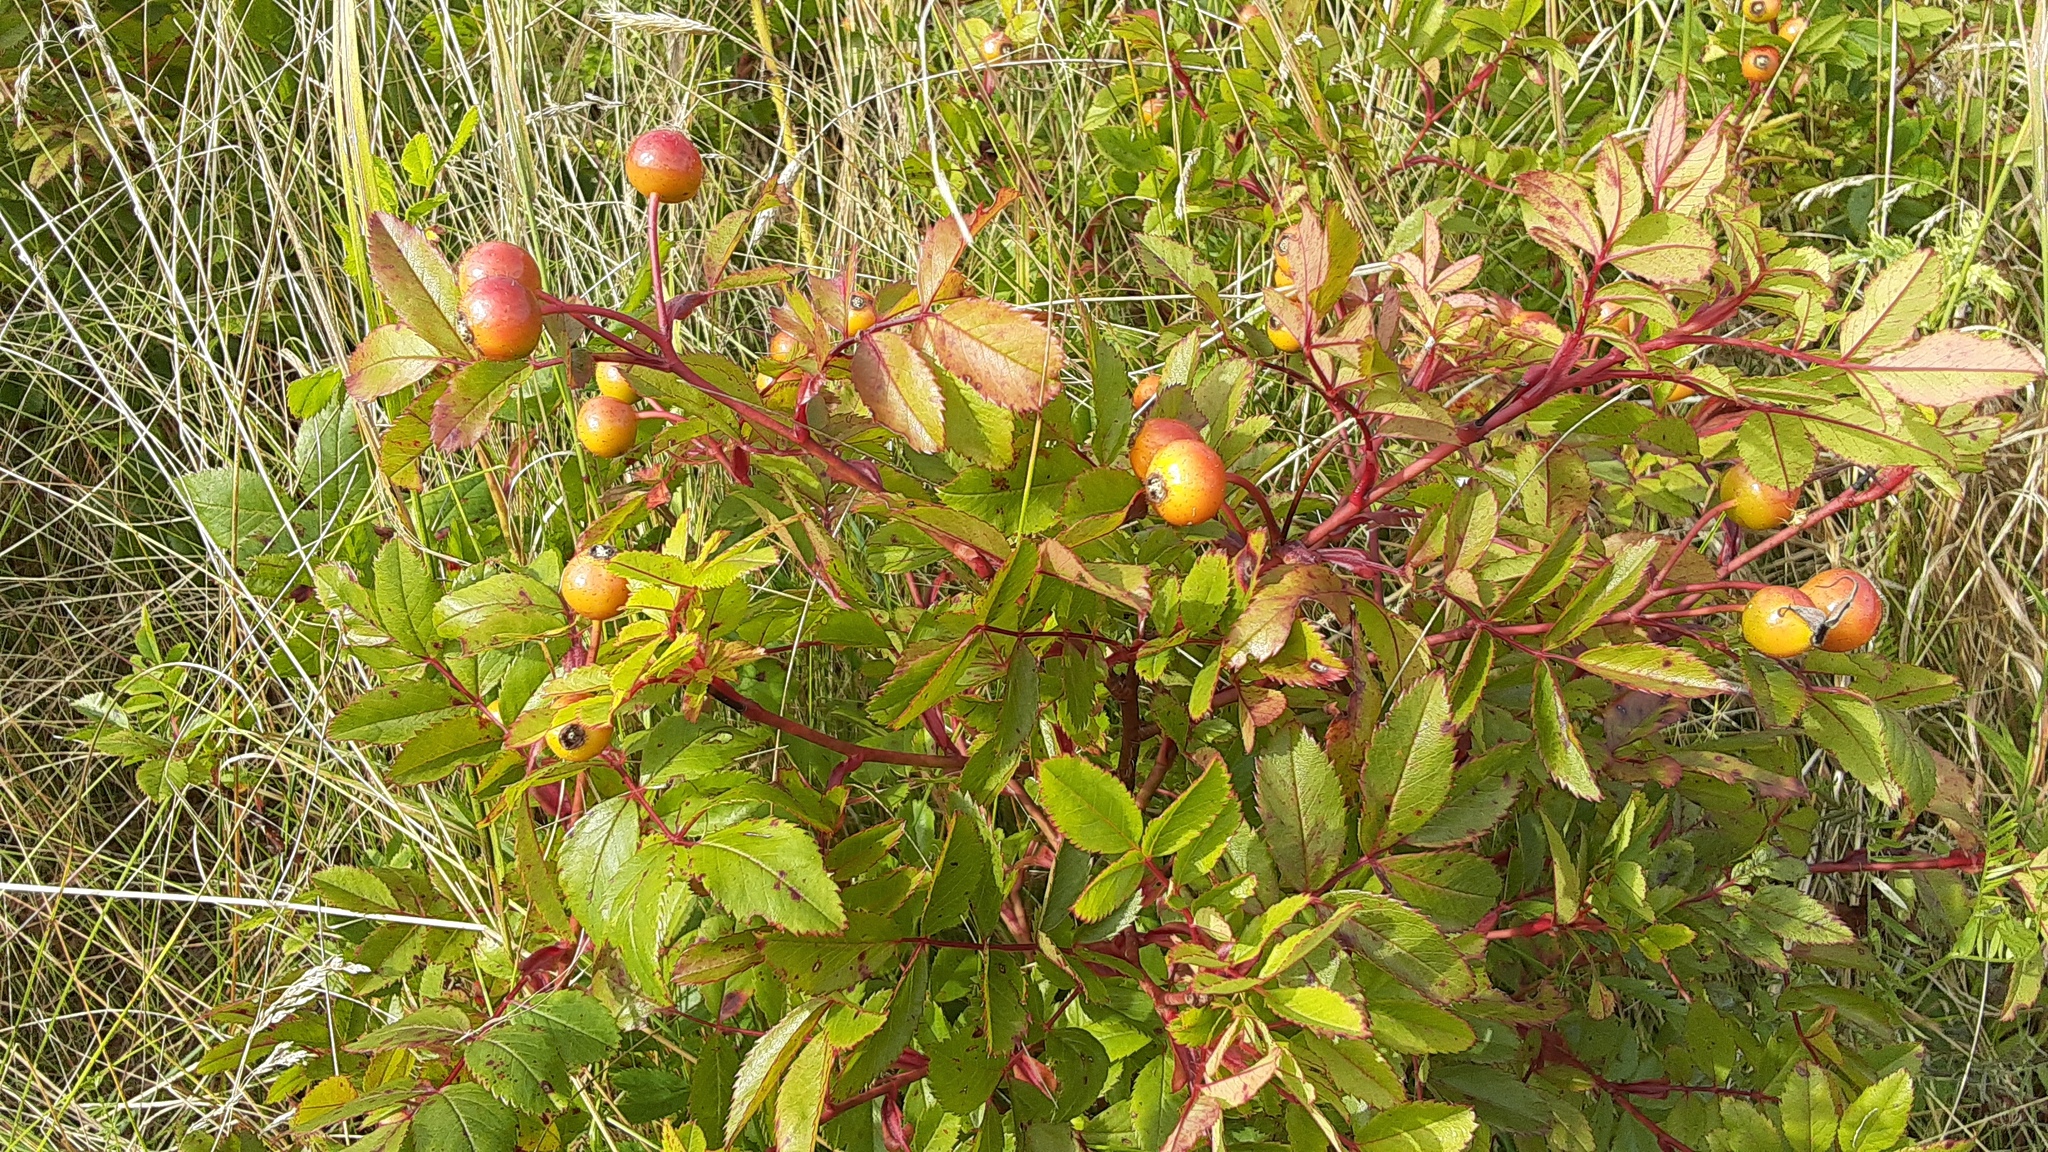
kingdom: Plantae
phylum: Tracheophyta
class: Magnoliopsida
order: Rosales
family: Rosaceae
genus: Rosa
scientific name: Rosa virginiana
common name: Virginian rose
